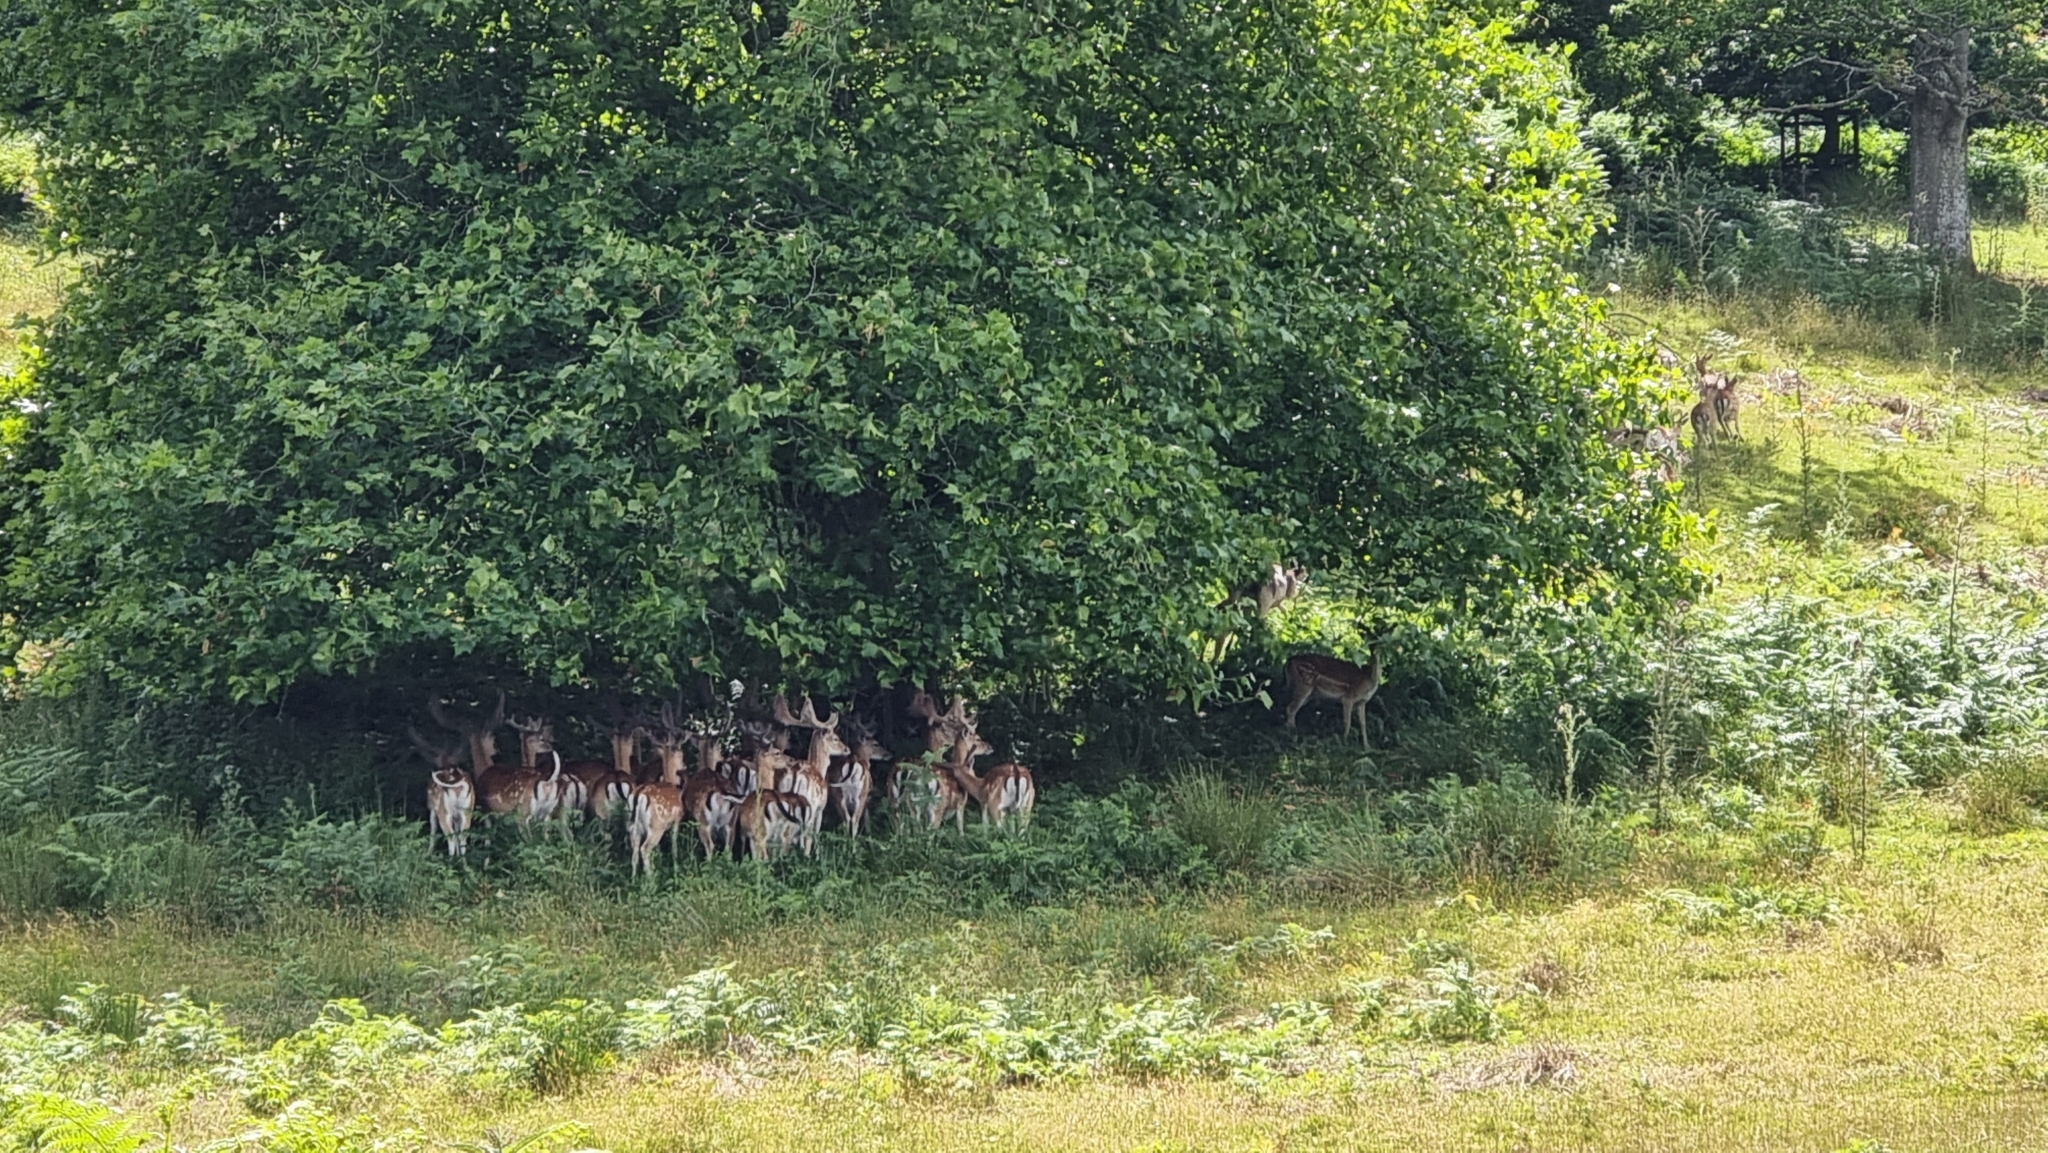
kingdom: Animalia
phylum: Chordata
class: Mammalia
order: Artiodactyla
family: Cervidae
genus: Dama
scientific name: Dama dama
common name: Fallow deer
